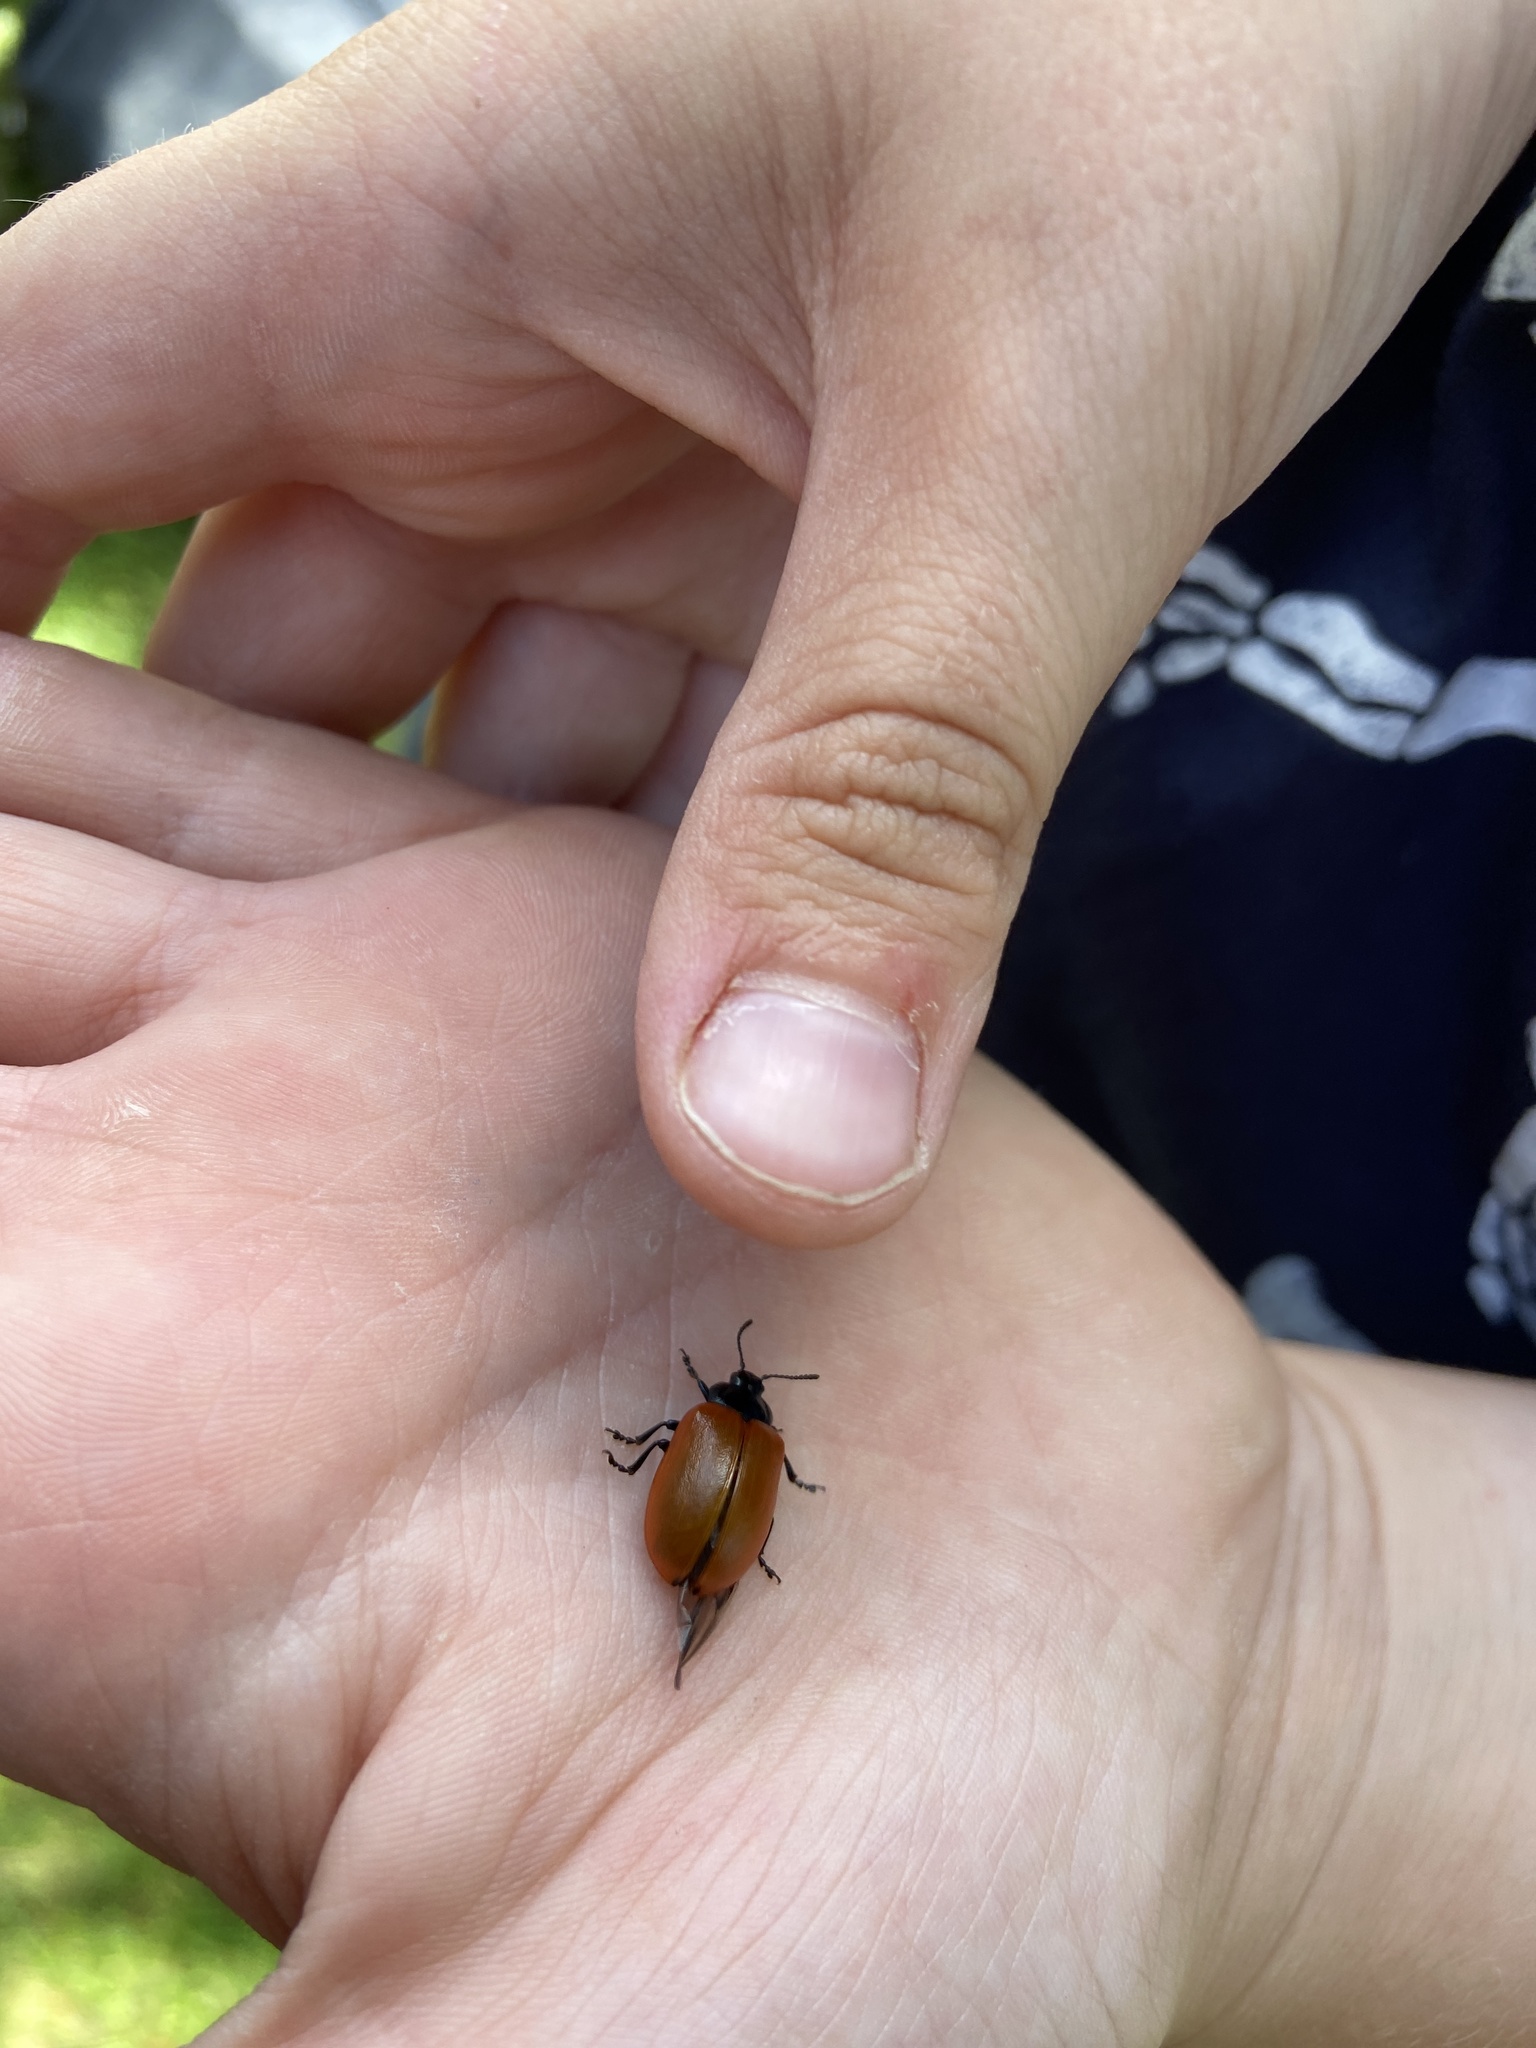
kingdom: Animalia
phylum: Arthropoda
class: Insecta
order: Coleoptera
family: Chrysomelidae
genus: Chrysomela
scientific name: Chrysomela populi
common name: Red poplar leaf beetle
